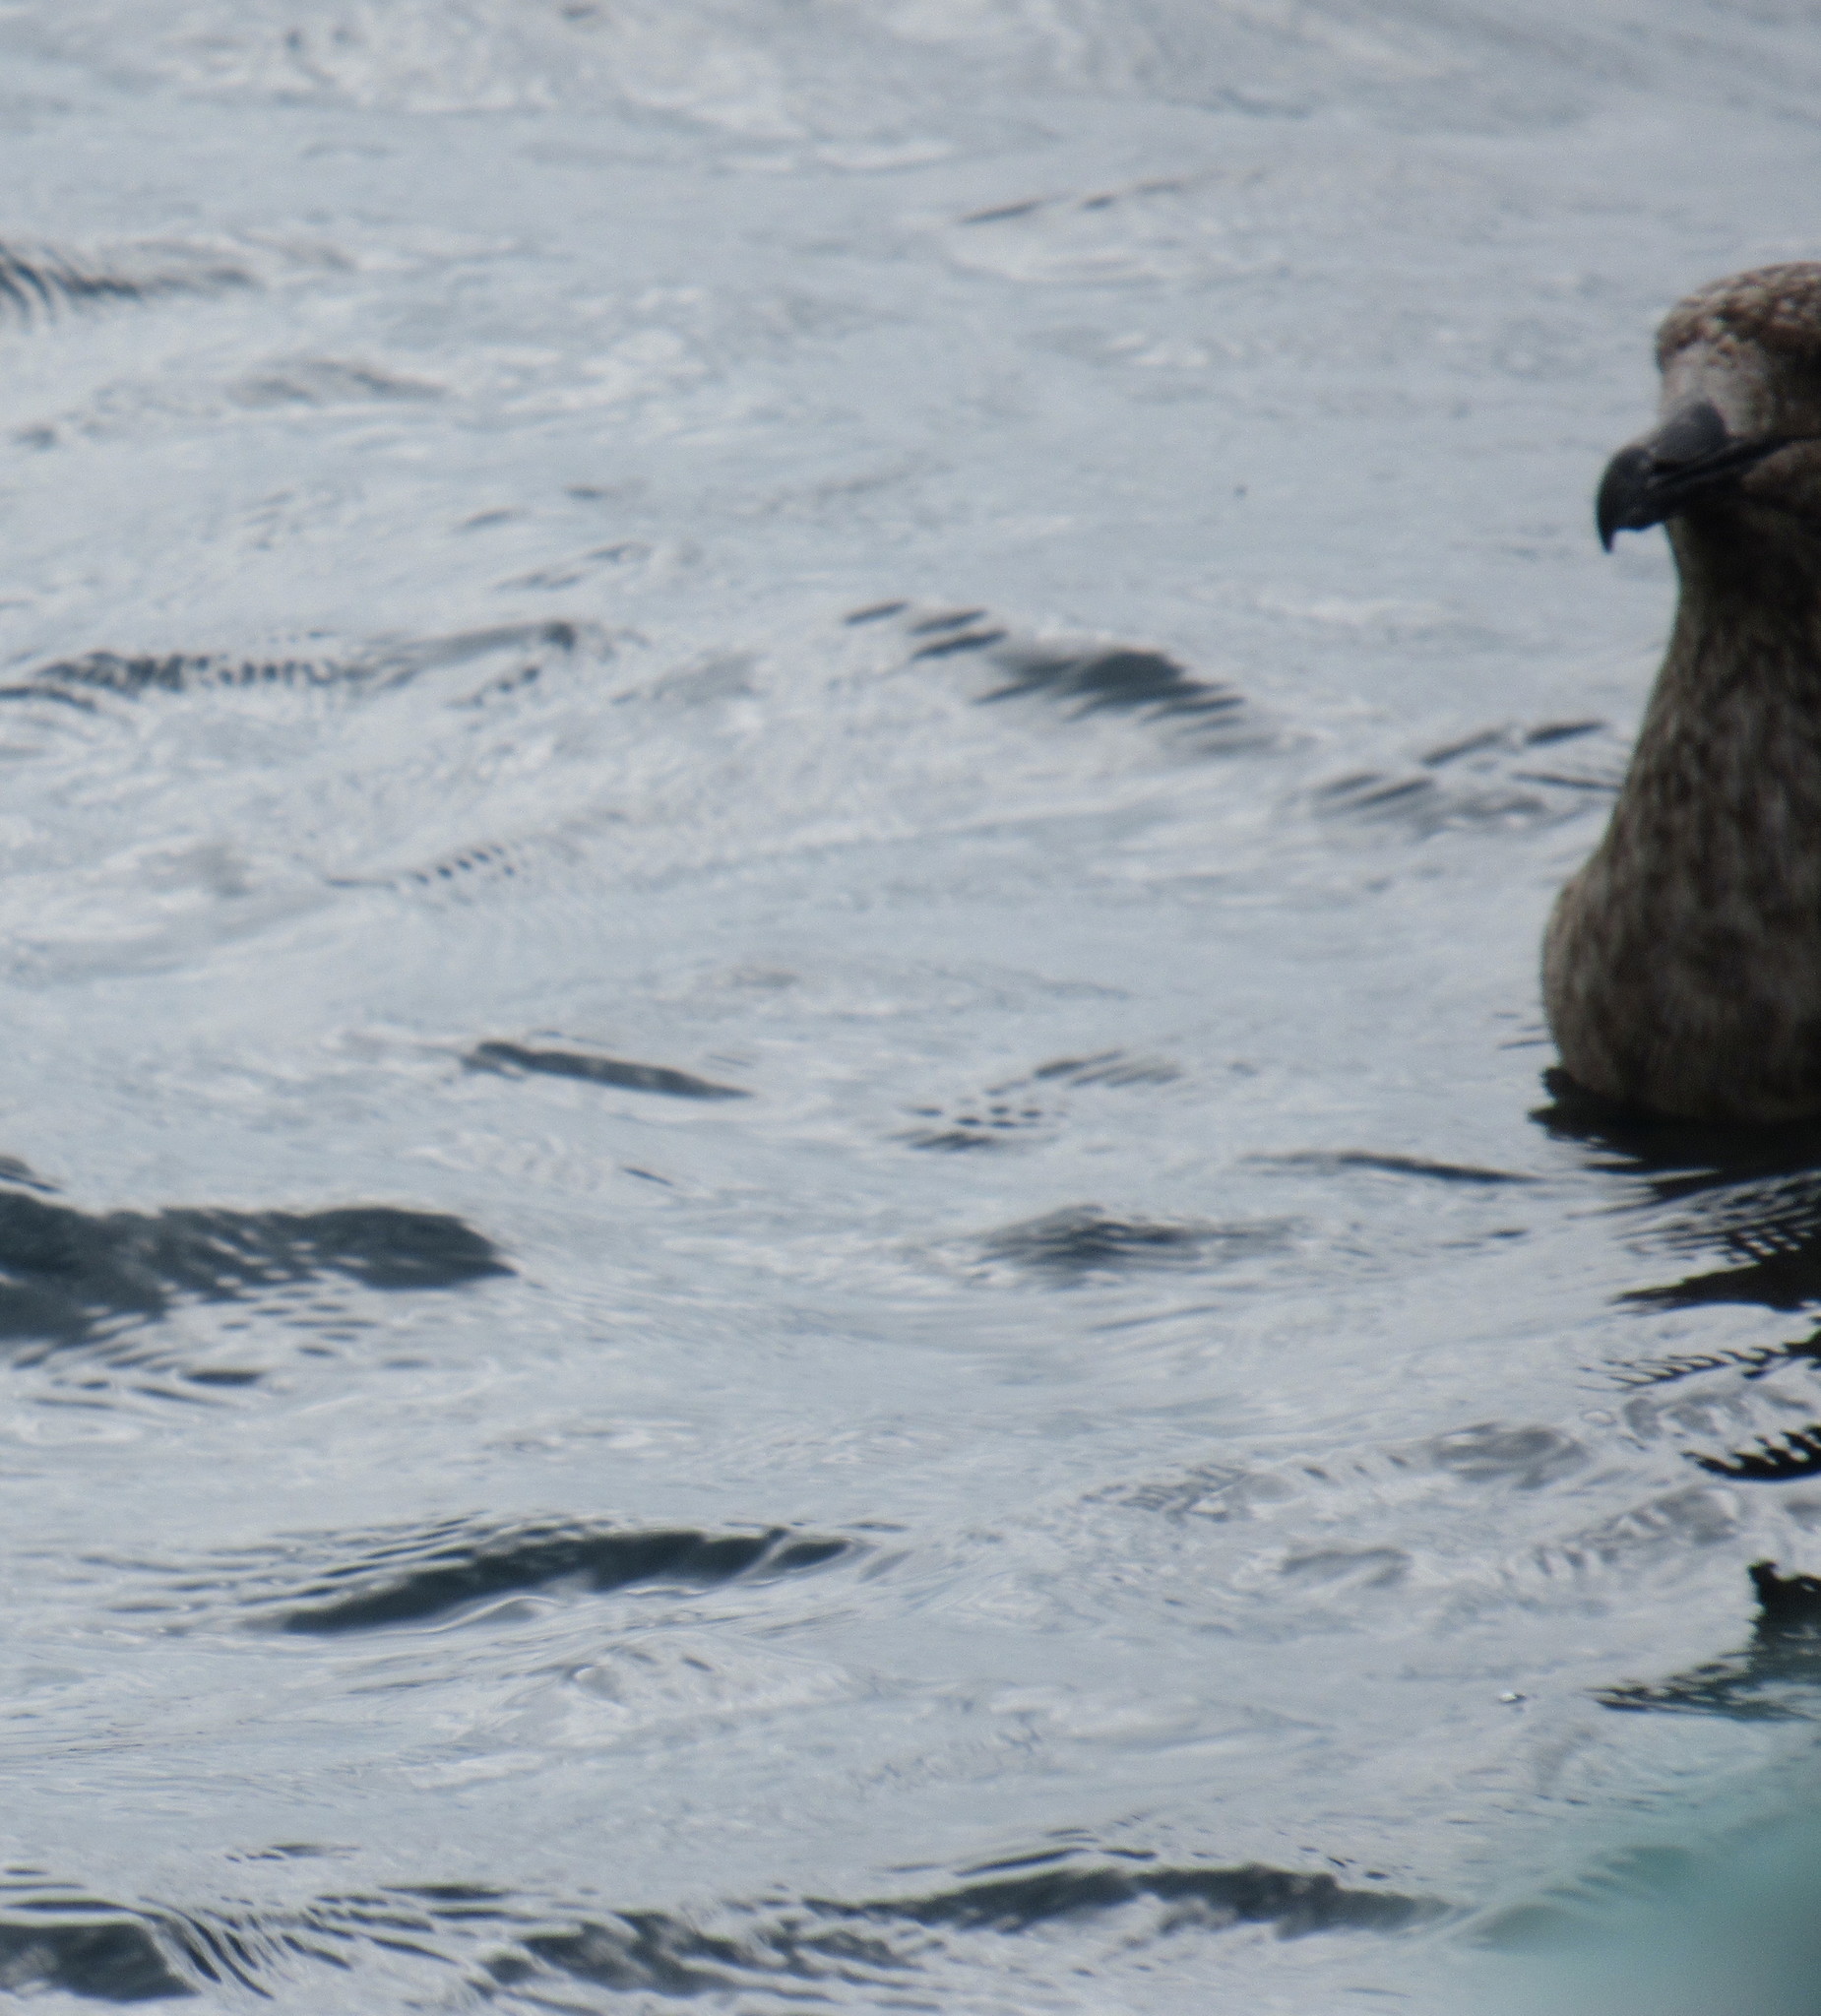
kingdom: Animalia
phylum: Chordata
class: Aves
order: Charadriiformes
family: Stercorariidae
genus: Stercorarius
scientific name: Stercorarius skua
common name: Great skua
